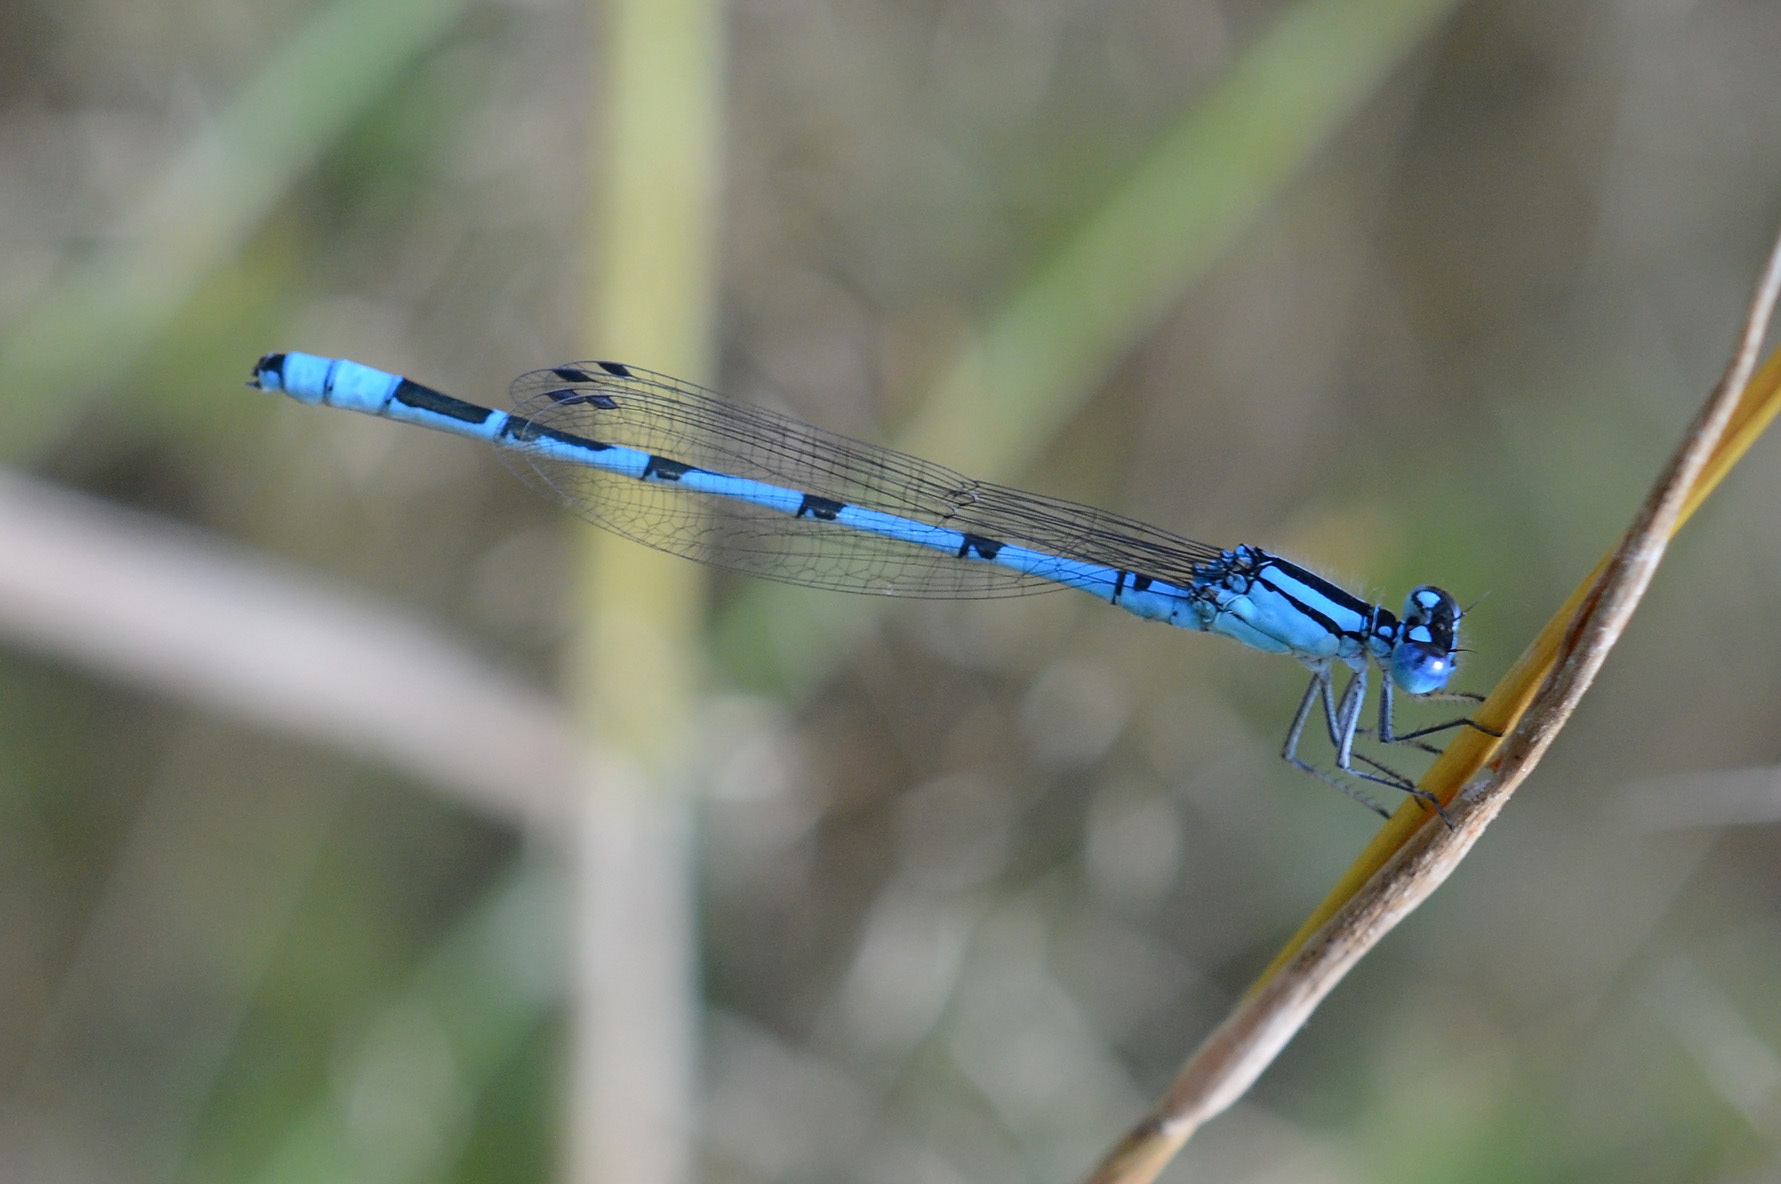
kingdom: Animalia
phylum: Arthropoda
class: Insecta
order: Odonata
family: Coenagrionidae
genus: Enallagma
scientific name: Enallagma cyathigerum
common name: Common blue damselfly
